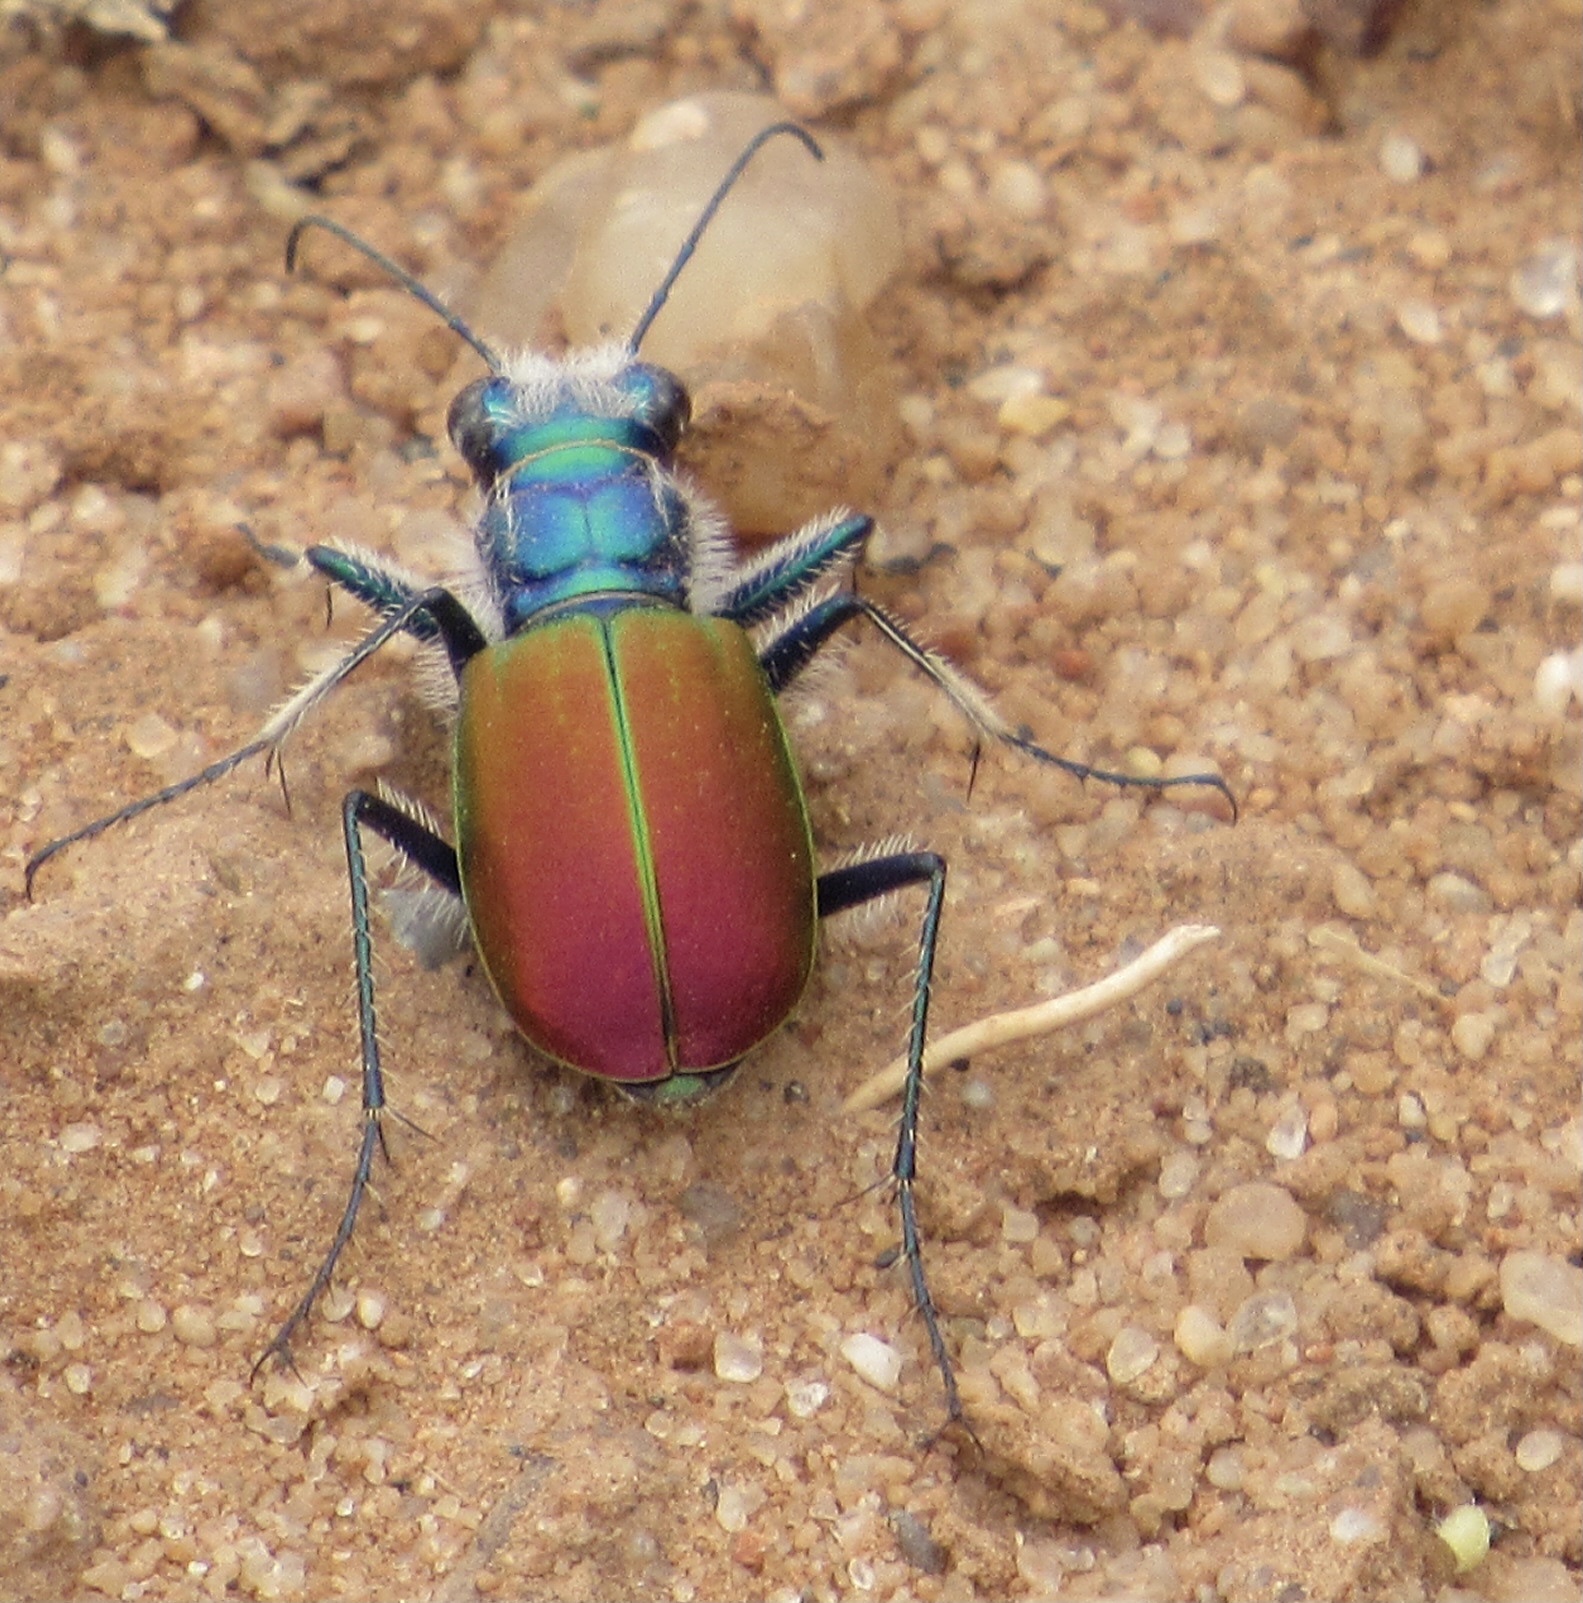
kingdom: Animalia
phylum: Arthropoda
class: Insecta
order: Coleoptera
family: Carabidae
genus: Cicindela
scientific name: Cicindela scutellaris
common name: Festive tiger beetle
